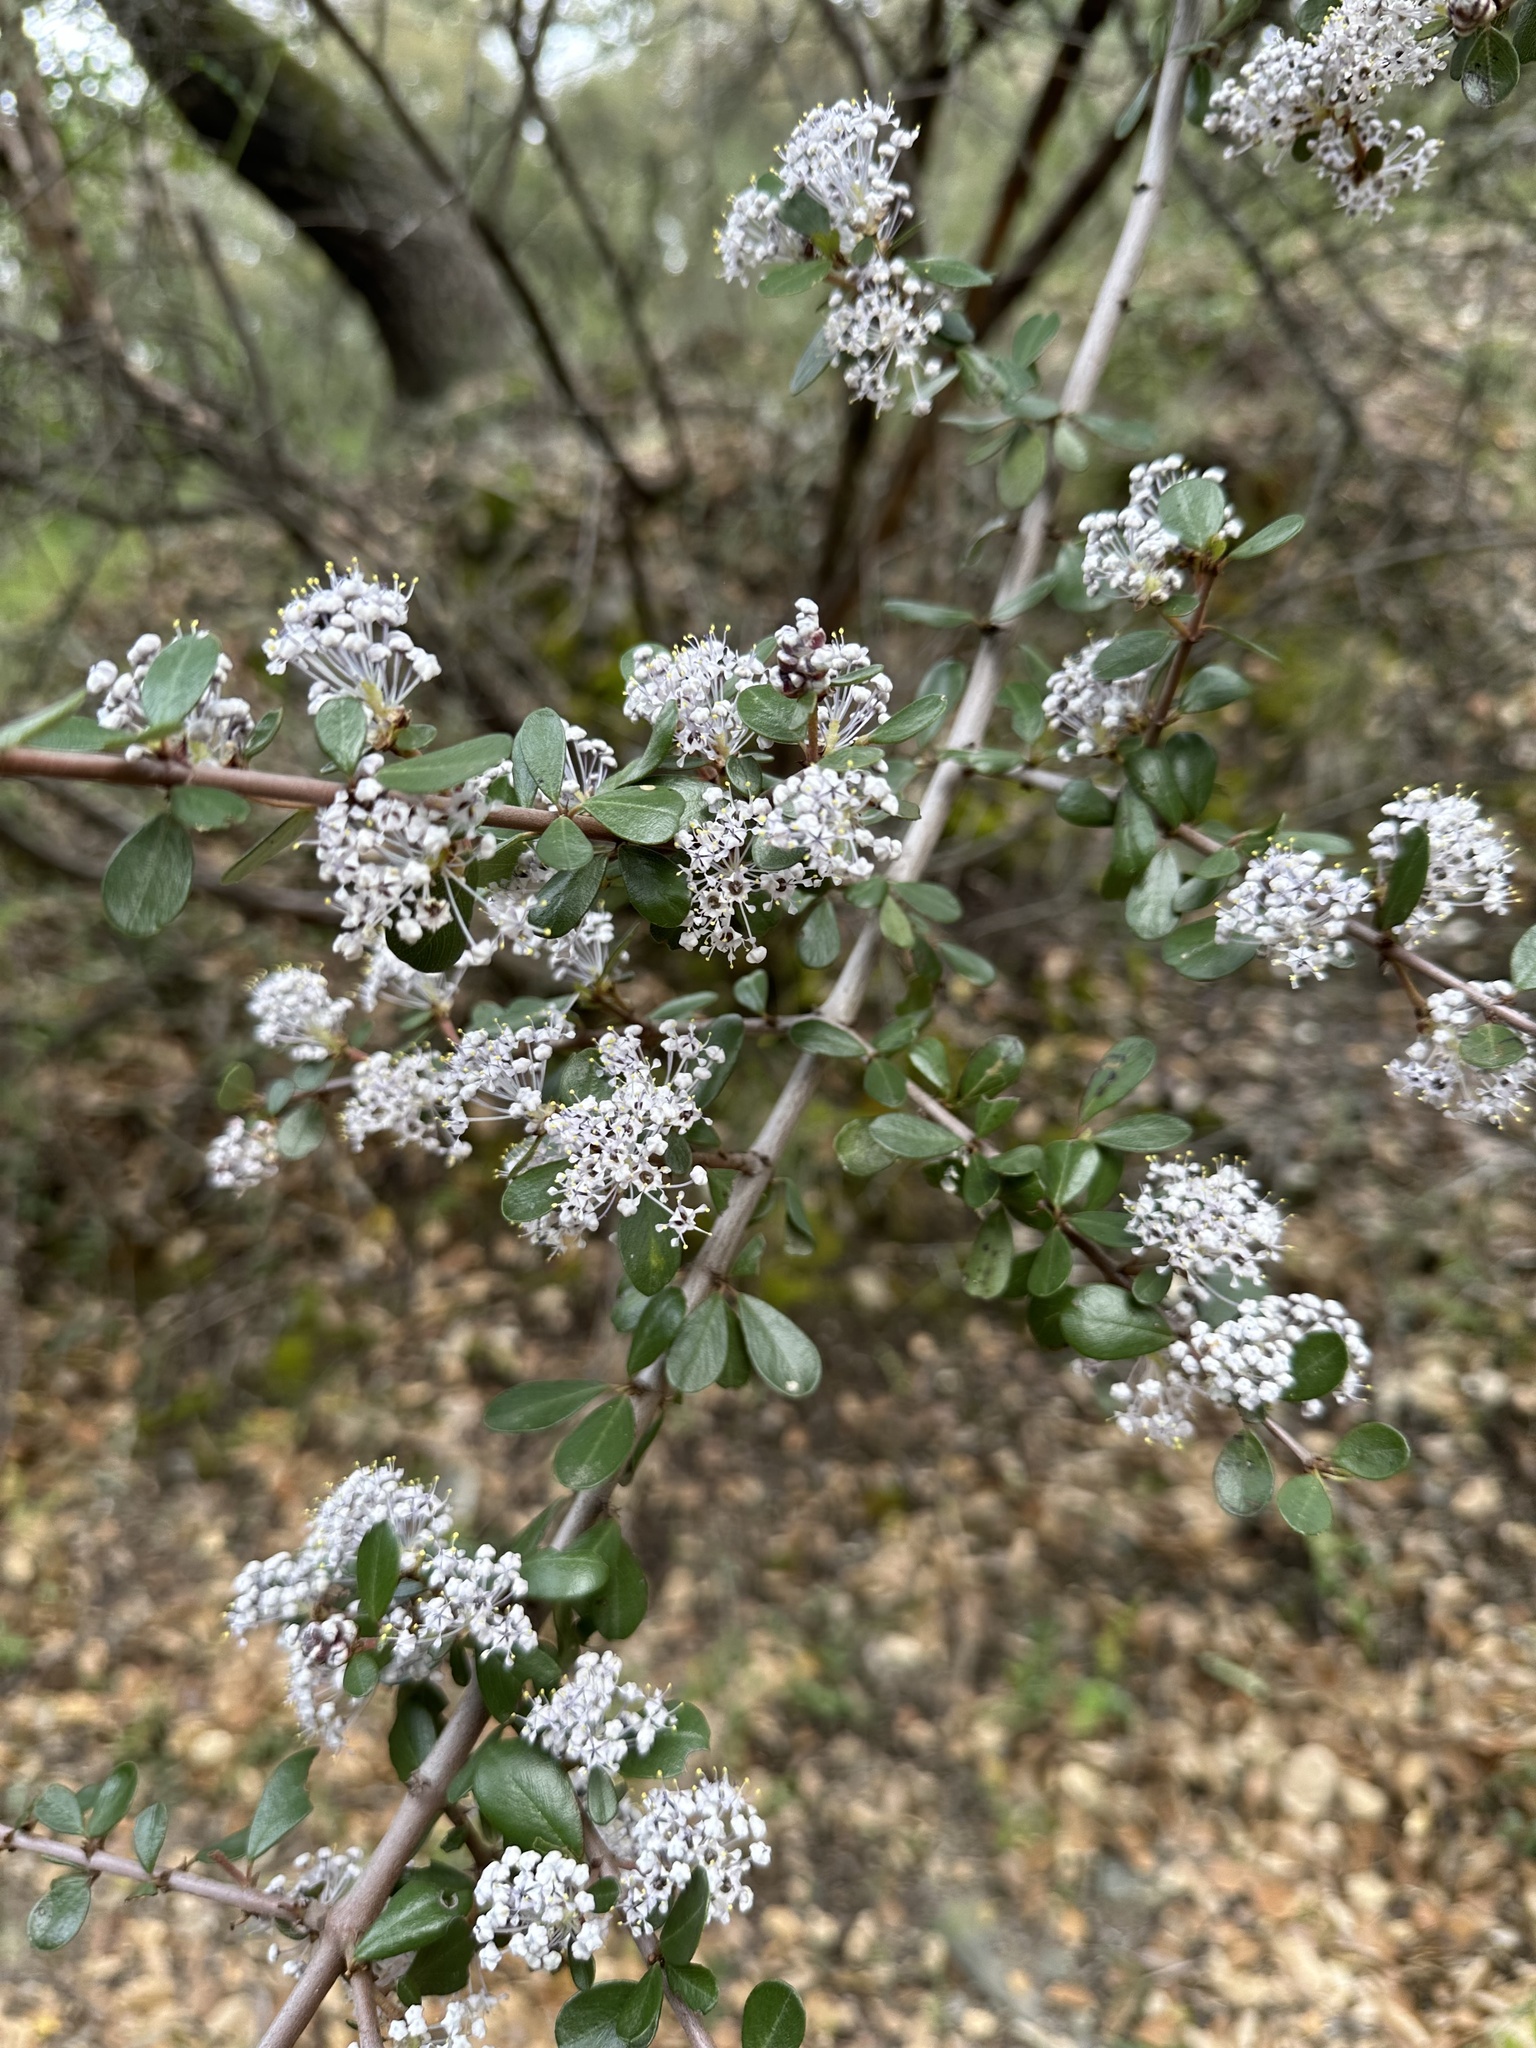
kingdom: Plantae
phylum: Tracheophyta
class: Magnoliopsida
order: Rosales
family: Rhamnaceae
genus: Ceanothus
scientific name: Ceanothus cuneatus
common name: Cuneate ceanothus
